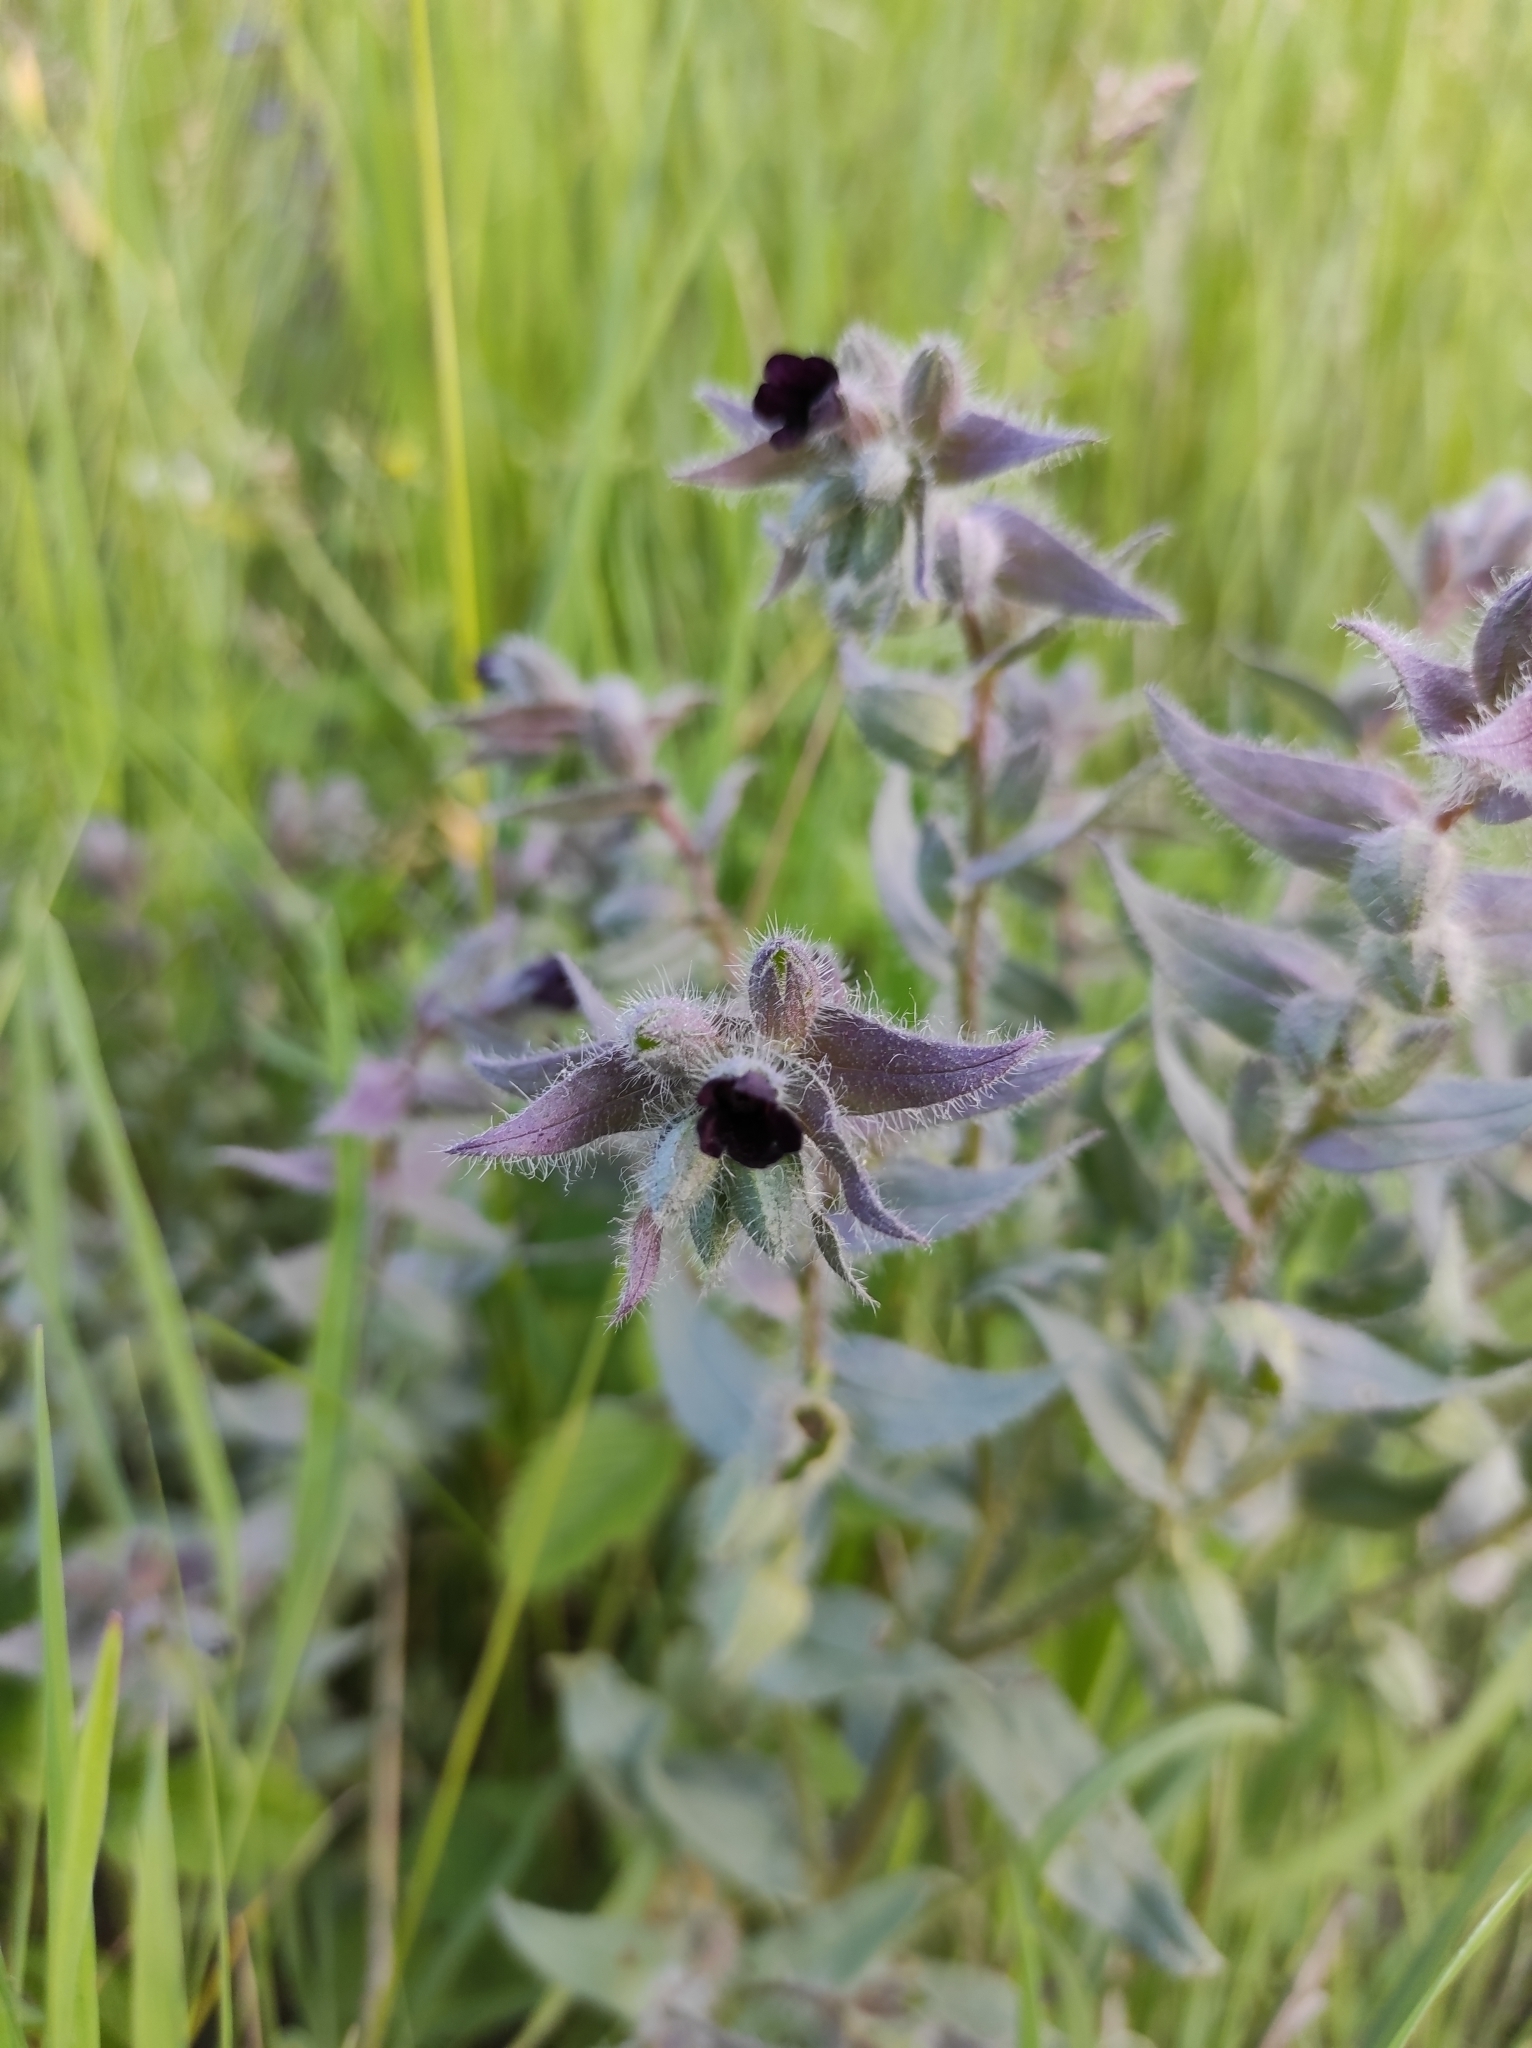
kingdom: Plantae
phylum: Tracheophyta
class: Magnoliopsida
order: Boraginales
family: Boraginaceae
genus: Nonea
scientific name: Nonea pulla
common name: Brown nonea
